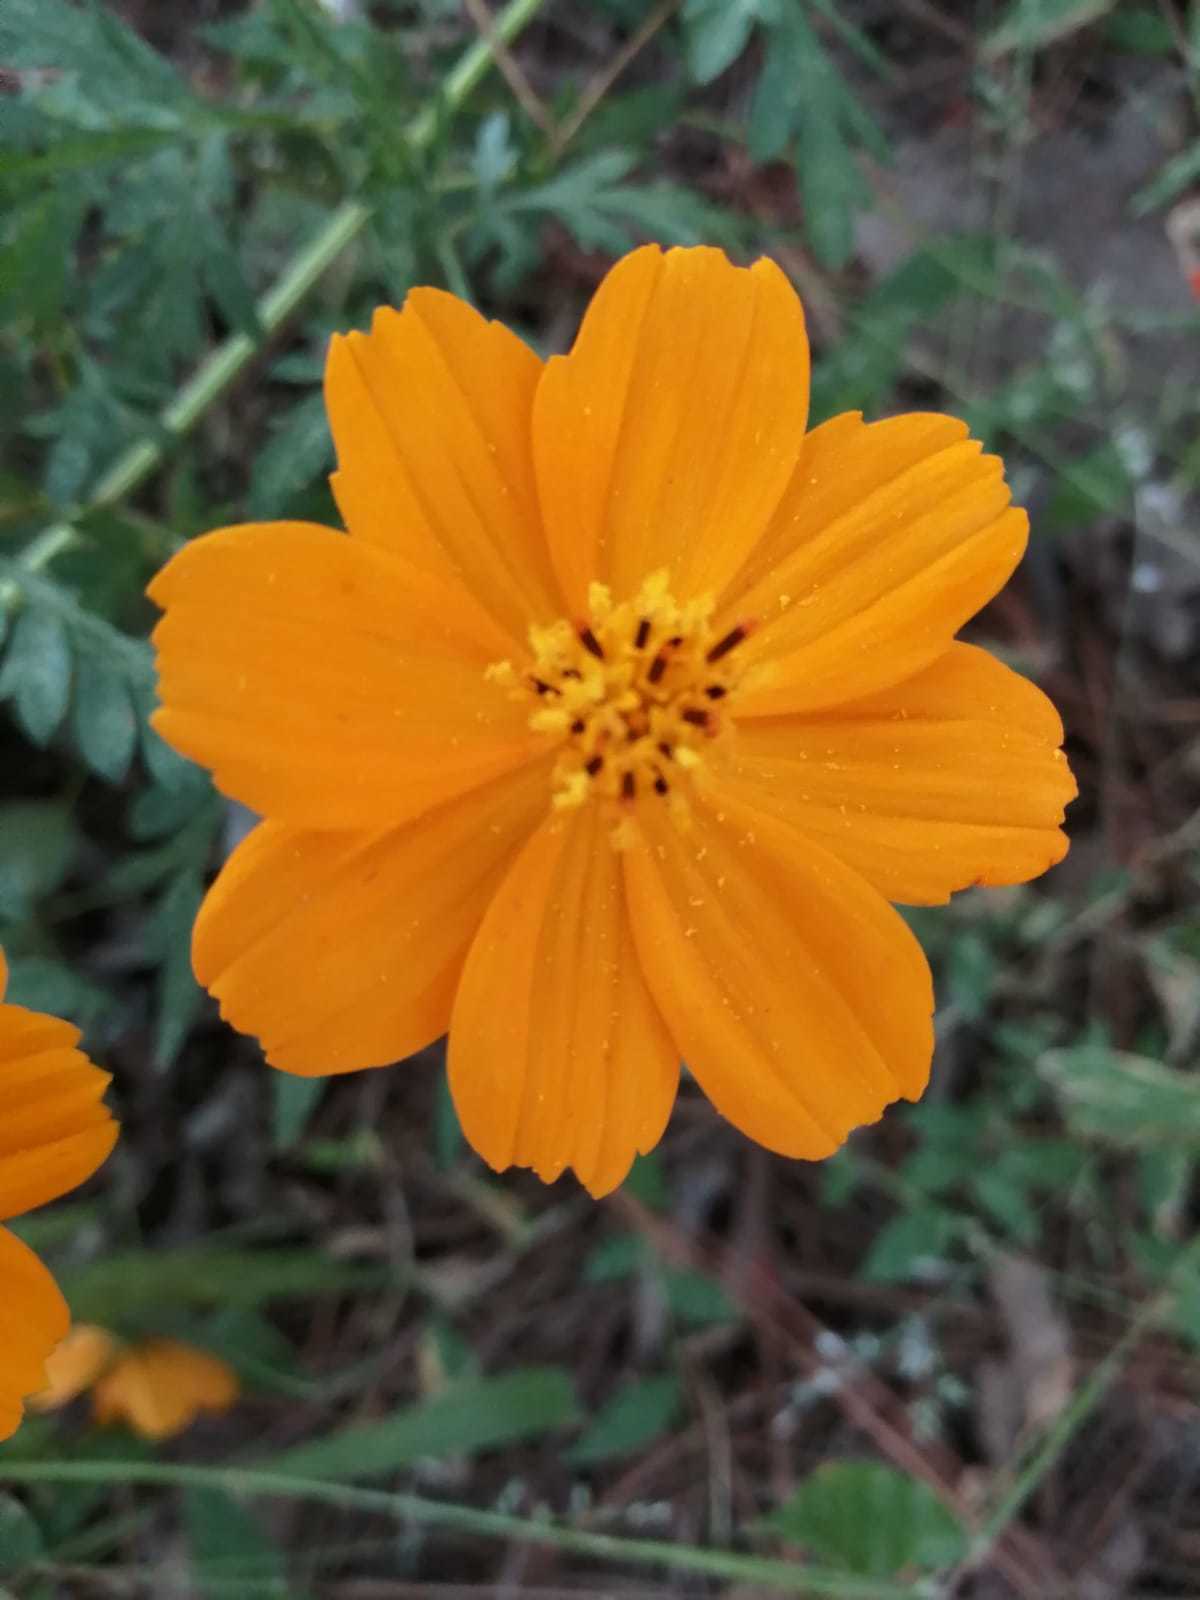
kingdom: Plantae
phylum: Tracheophyta
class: Magnoliopsida
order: Asterales
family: Asteraceae
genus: Cosmos
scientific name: Cosmos sulphureus
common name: Sulphur cosmos
